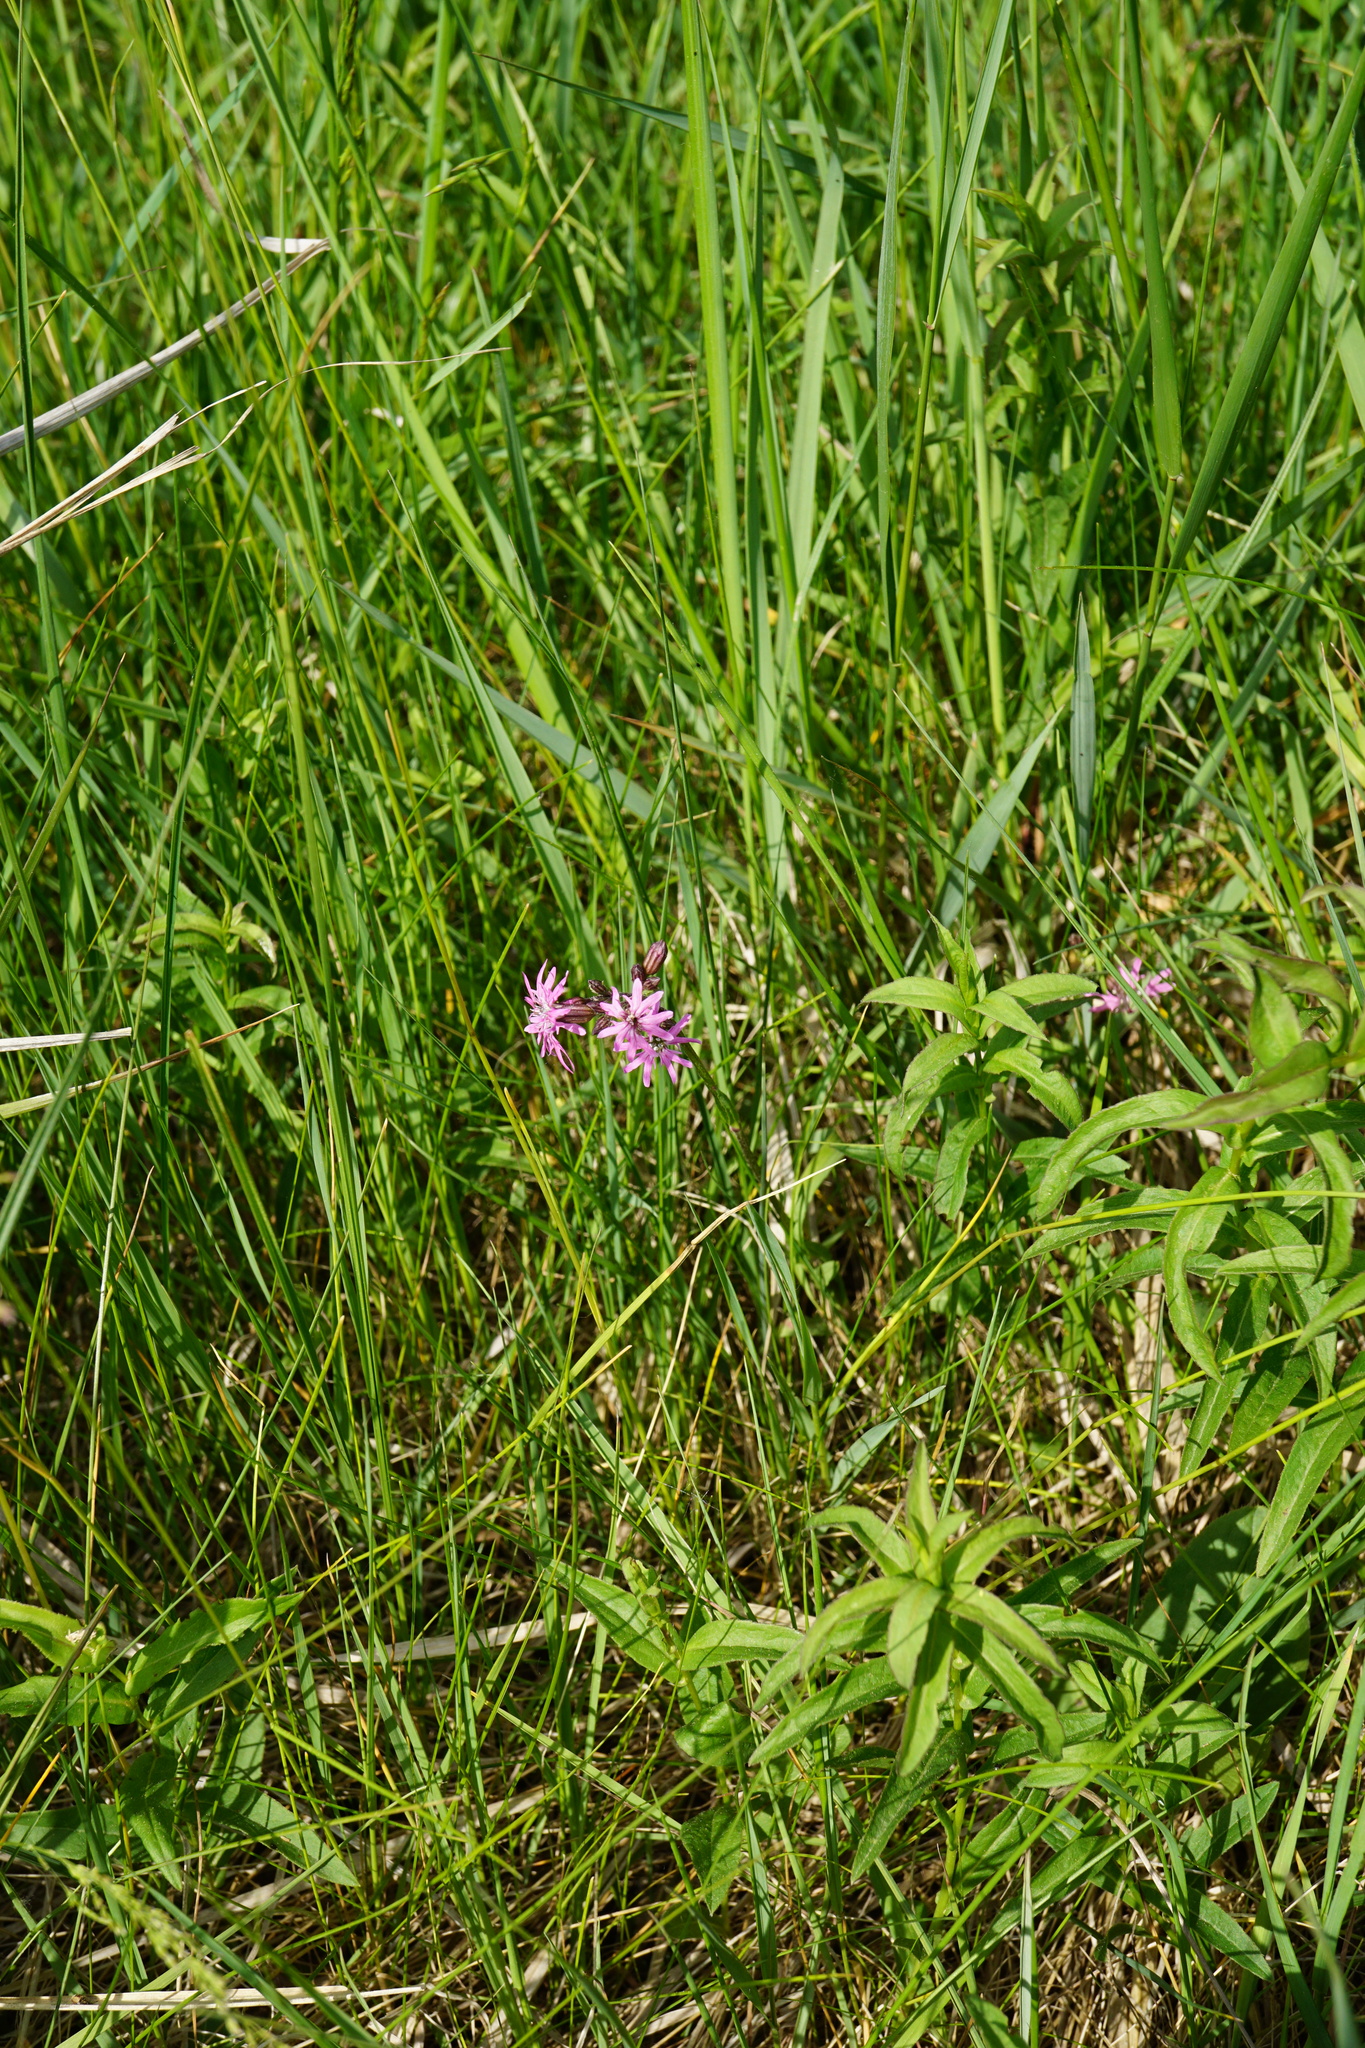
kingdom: Plantae
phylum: Tracheophyta
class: Magnoliopsida
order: Caryophyllales
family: Caryophyllaceae
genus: Silene
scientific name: Silene flos-cuculi
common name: Ragged-robin
